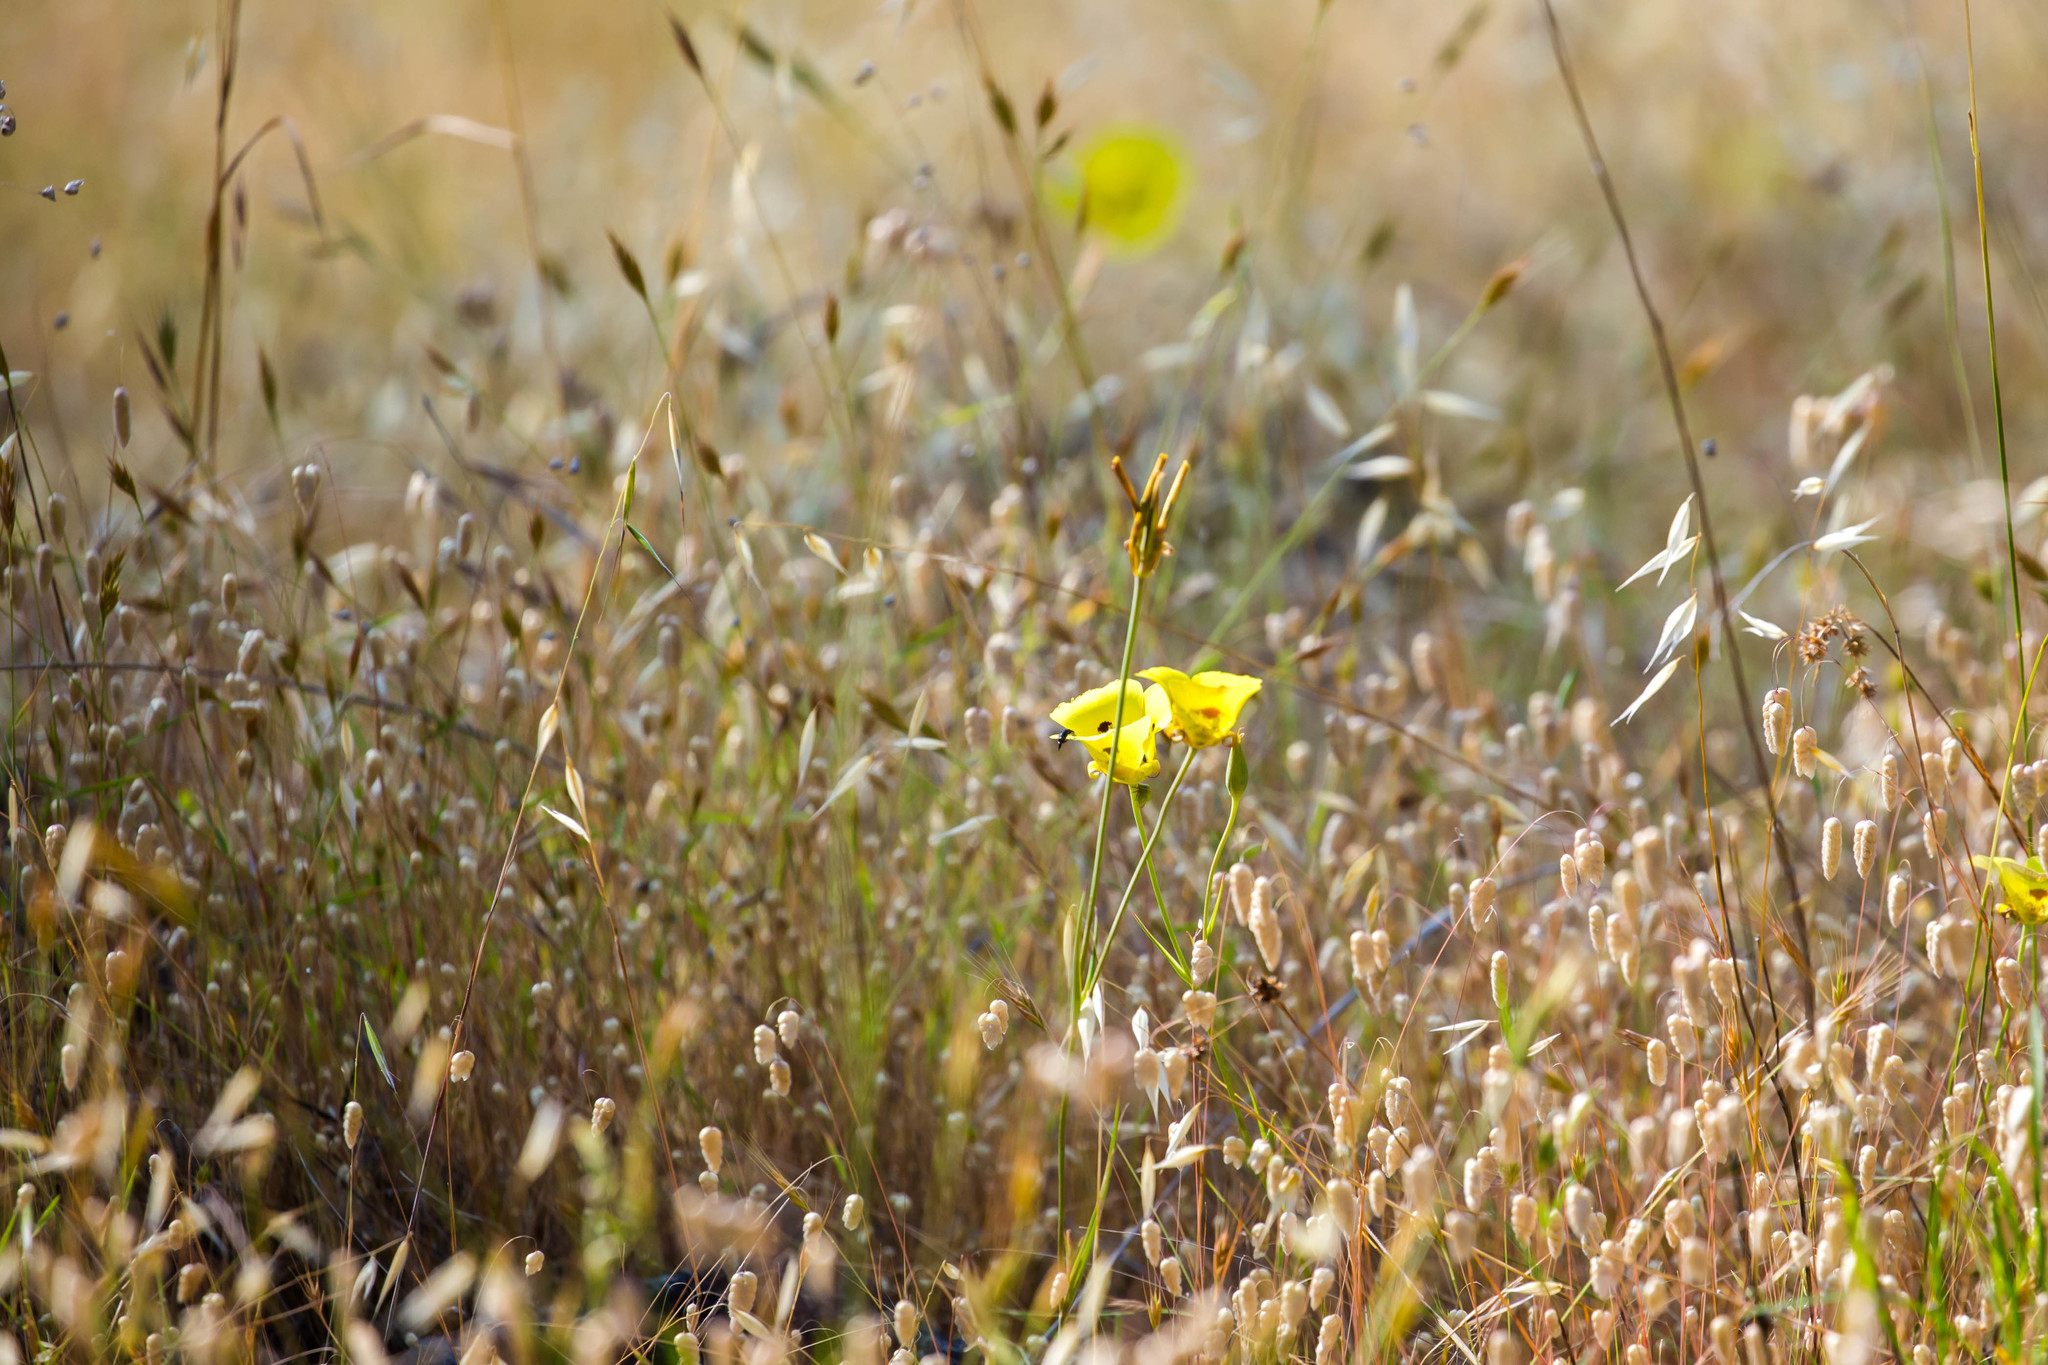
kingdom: Plantae
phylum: Tracheophyta
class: Liliopsida
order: Liliales
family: Liliaceae
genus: Calochortus
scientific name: Calochortus luteus
